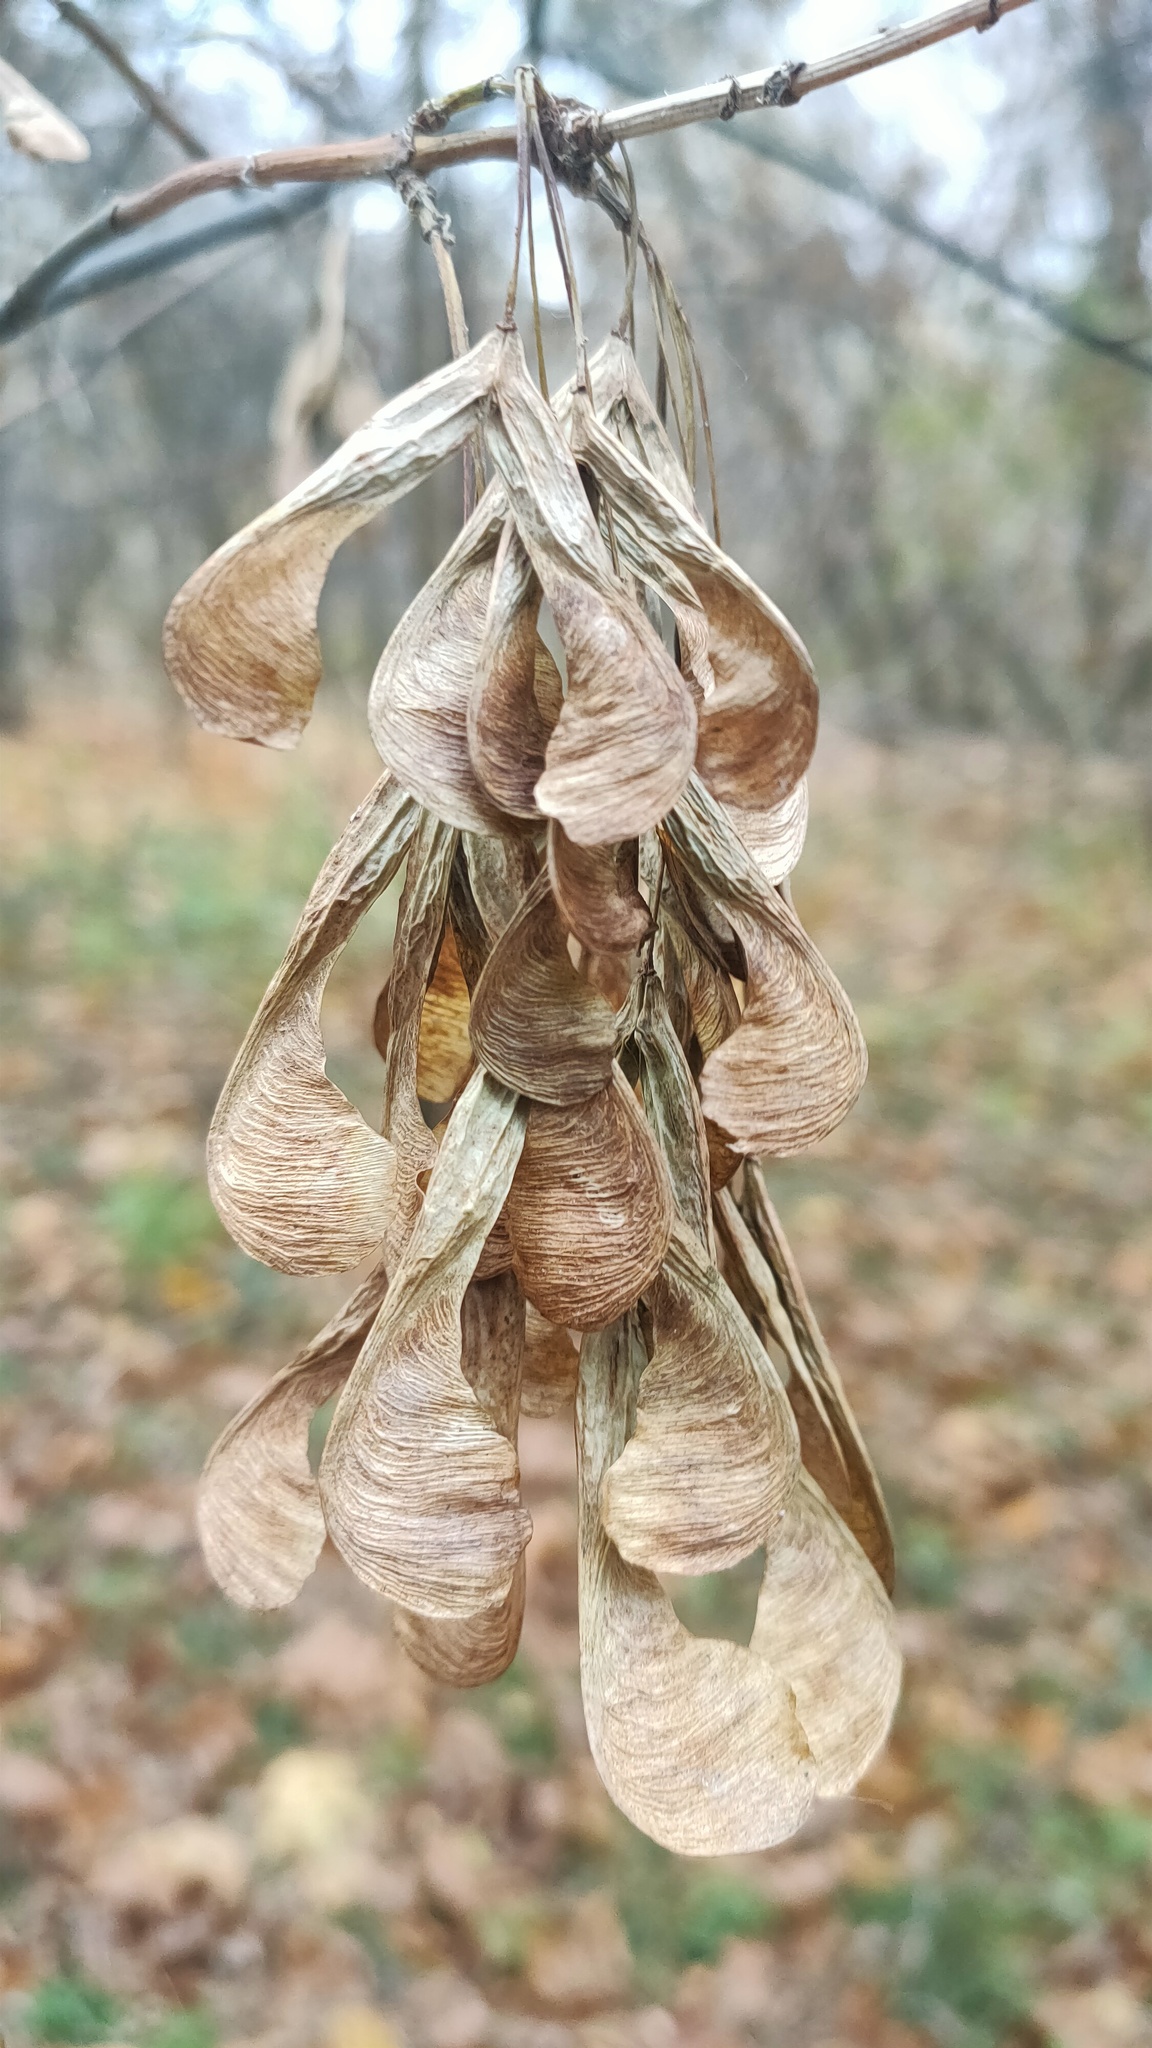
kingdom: Plantae
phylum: Tracheophyta
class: Magnoliopsida
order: Sapindales
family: Sapindaceae
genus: Acer
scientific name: Acer negundo
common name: Ashleaf maple
